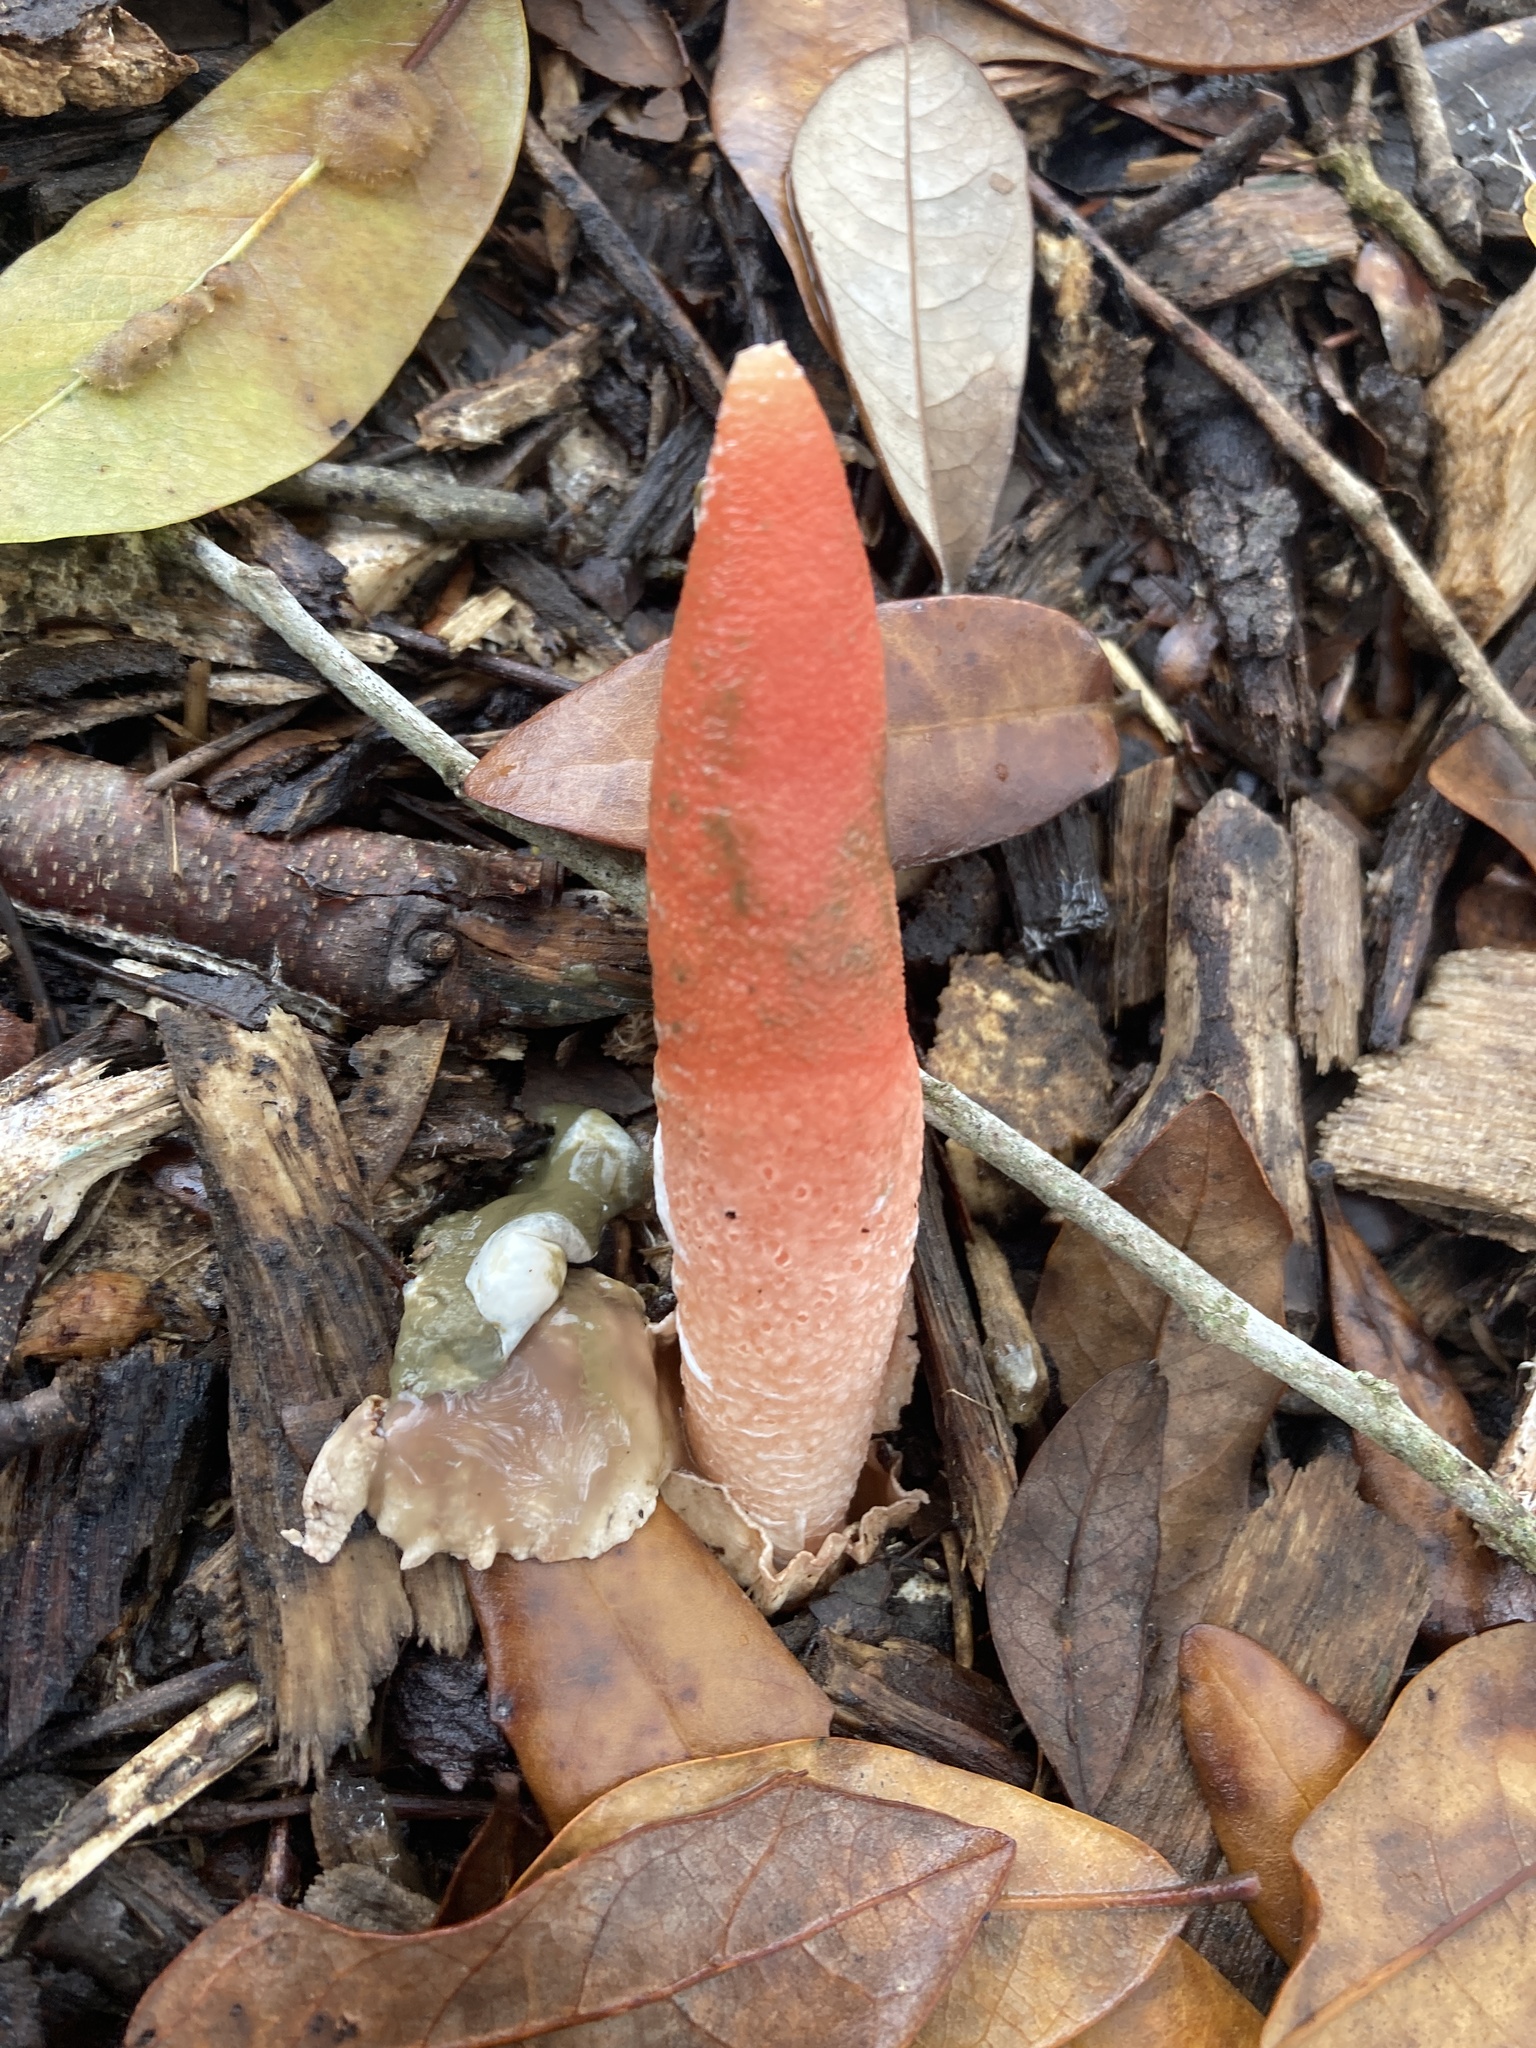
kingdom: Fungi
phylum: Basidiomycota
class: Agaricomycetes
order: Phallales
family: Phallaceae
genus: Mutinus
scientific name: Mutinus elegans
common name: Devil's dipstick
